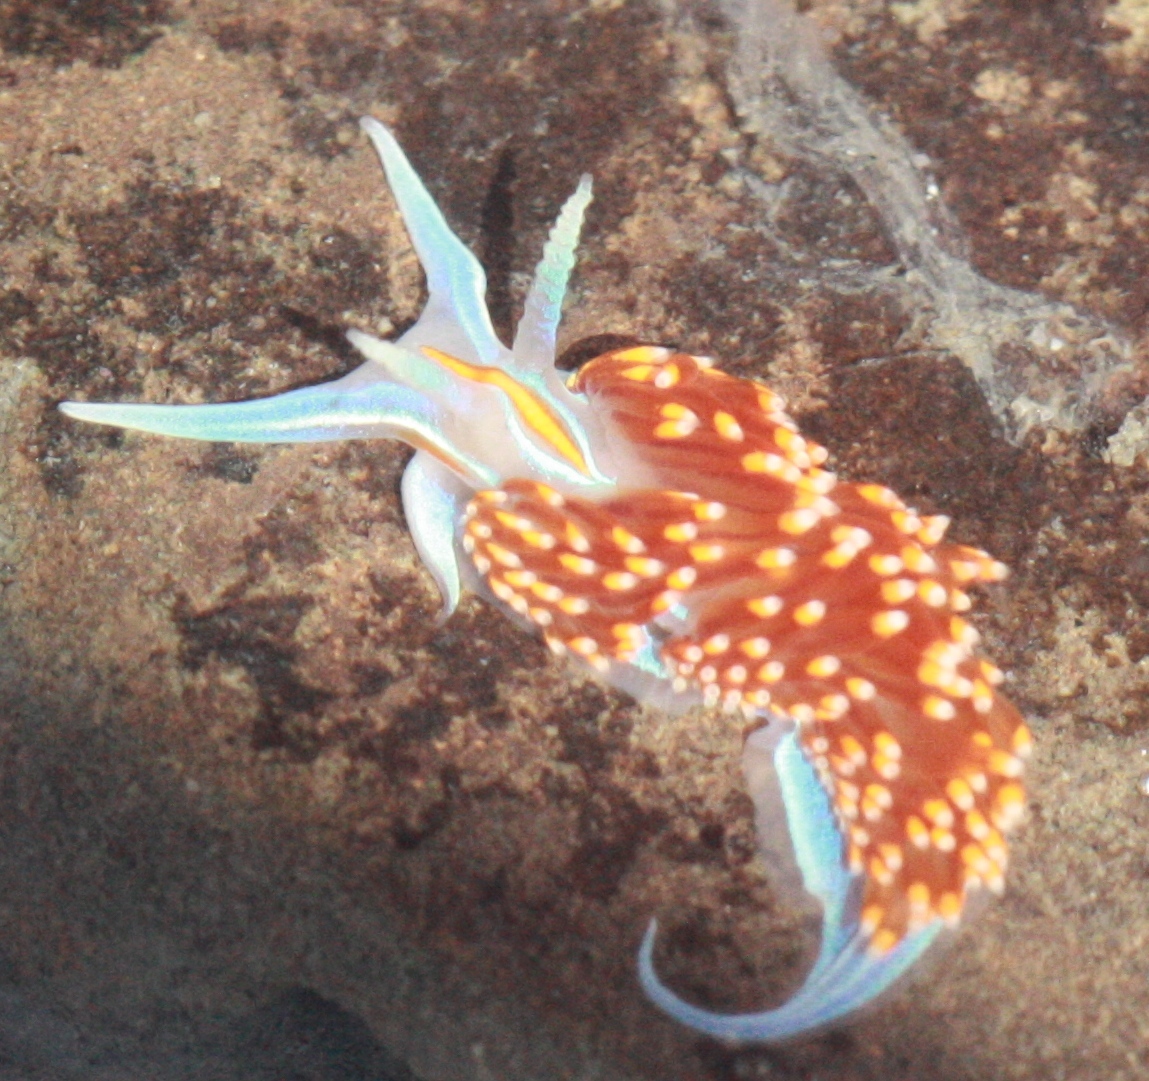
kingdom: Animalia
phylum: Mollusca
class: Gastropoda
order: Nudibranchia
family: Myrrhinidae
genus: Hermissenda
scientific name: Hermissenda opalescens
